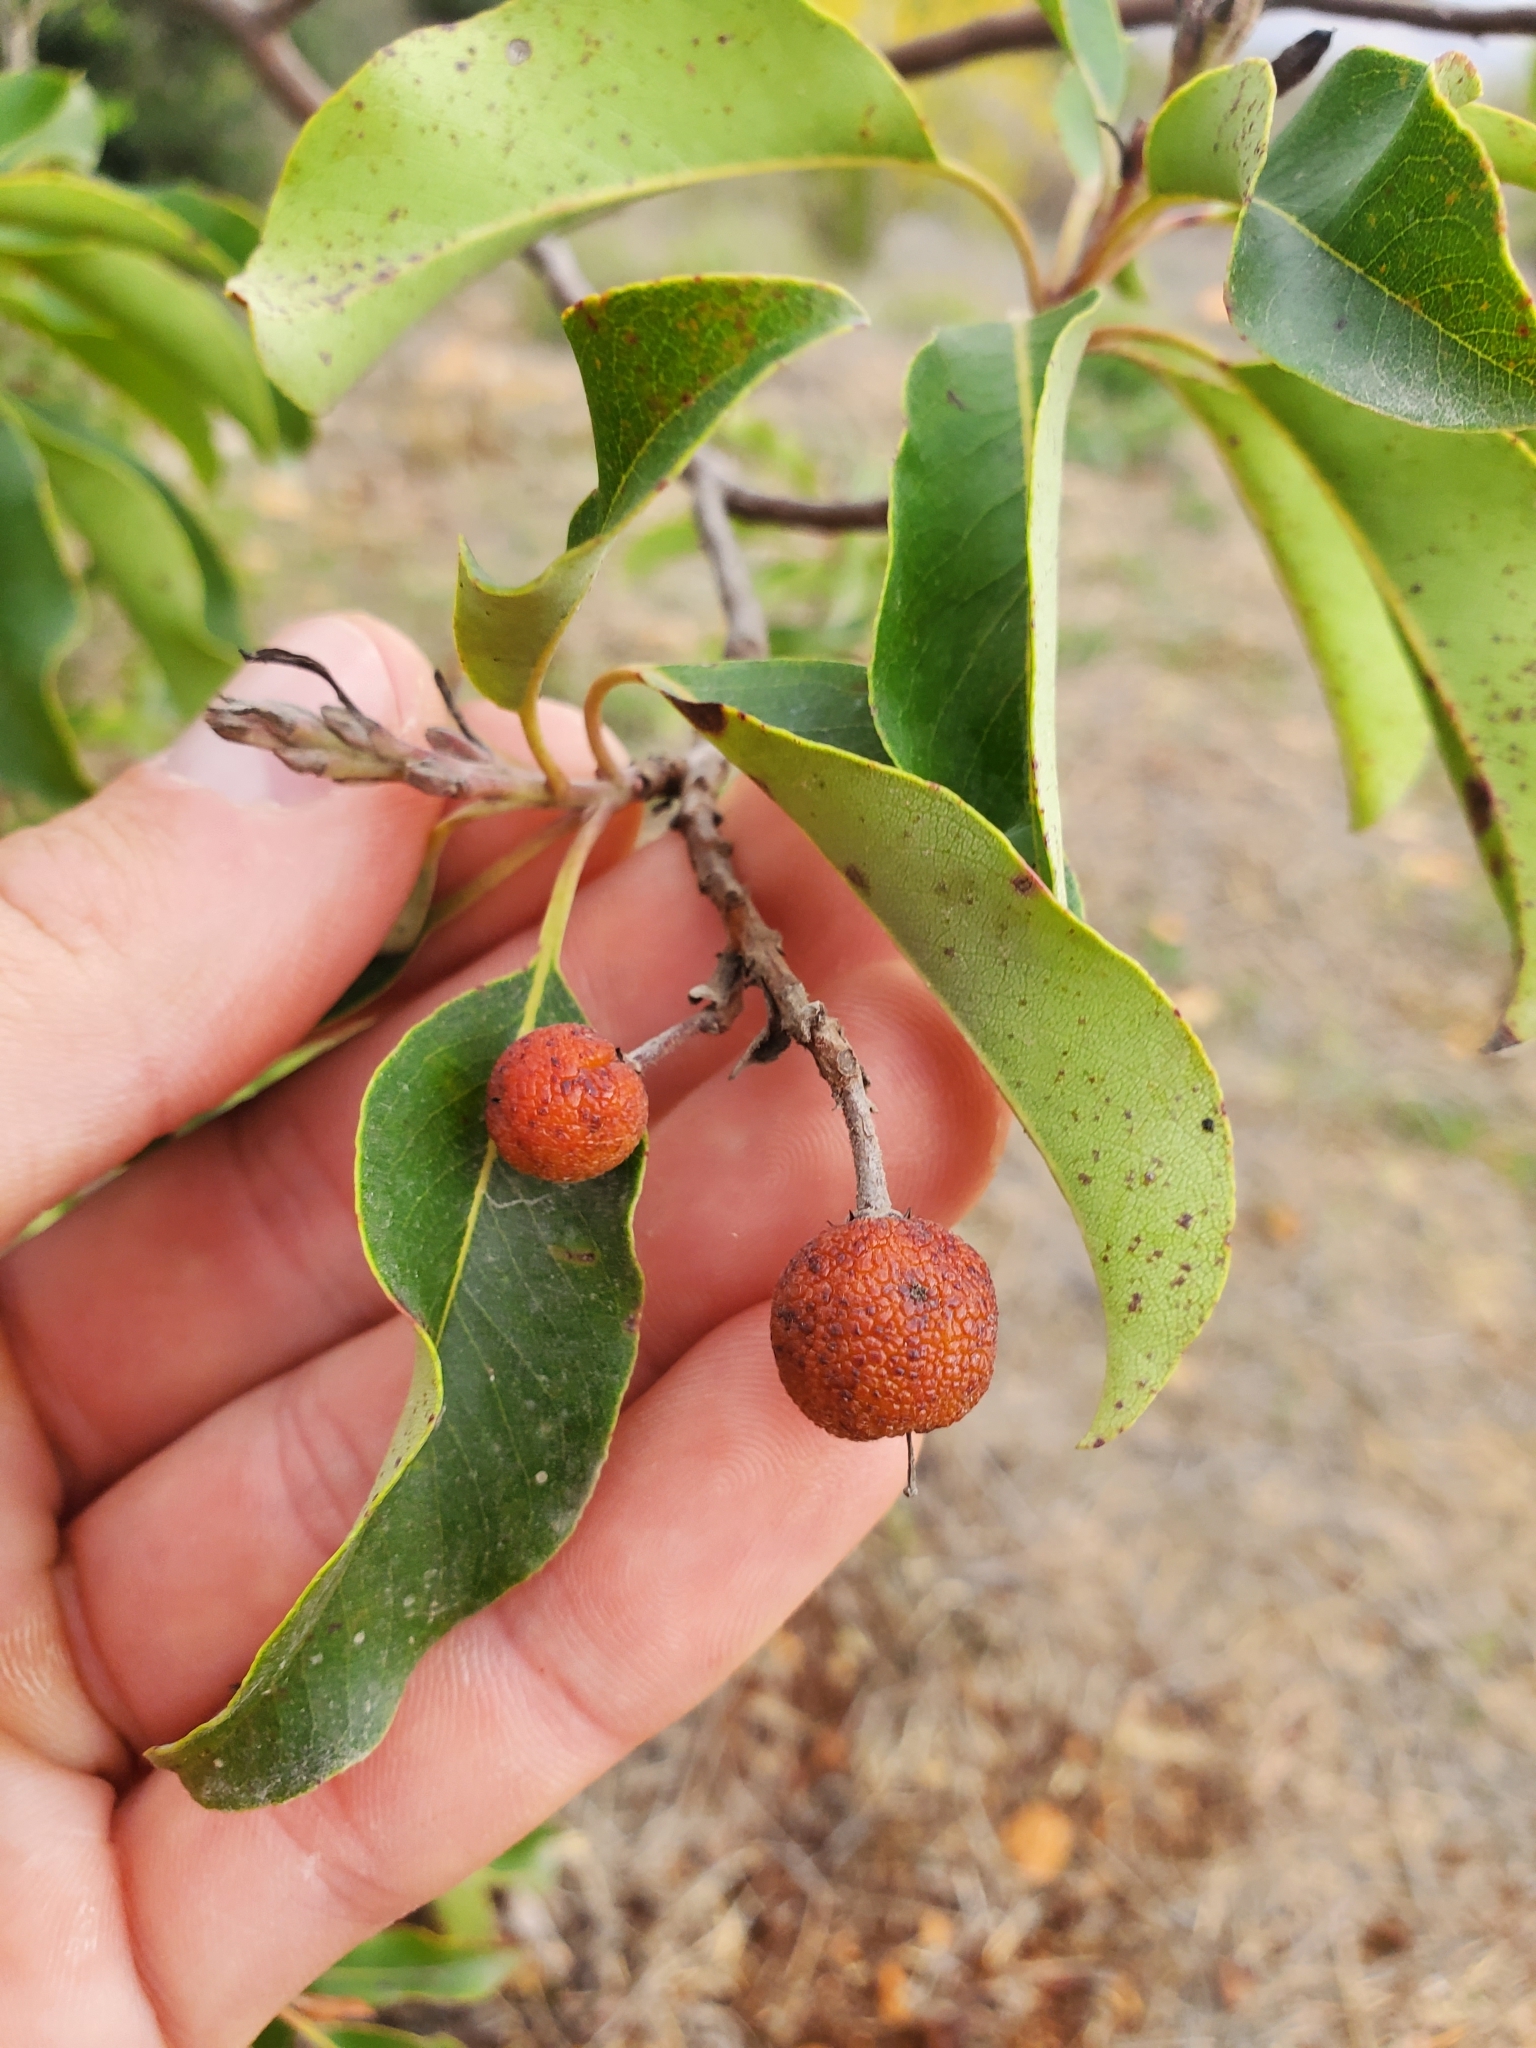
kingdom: Plantae
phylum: Tracheophyta
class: Magnoliopsida
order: Ericales
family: Ericaceae
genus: Arbutus
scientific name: Arbutus andrachne
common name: Greek strawberry tree
